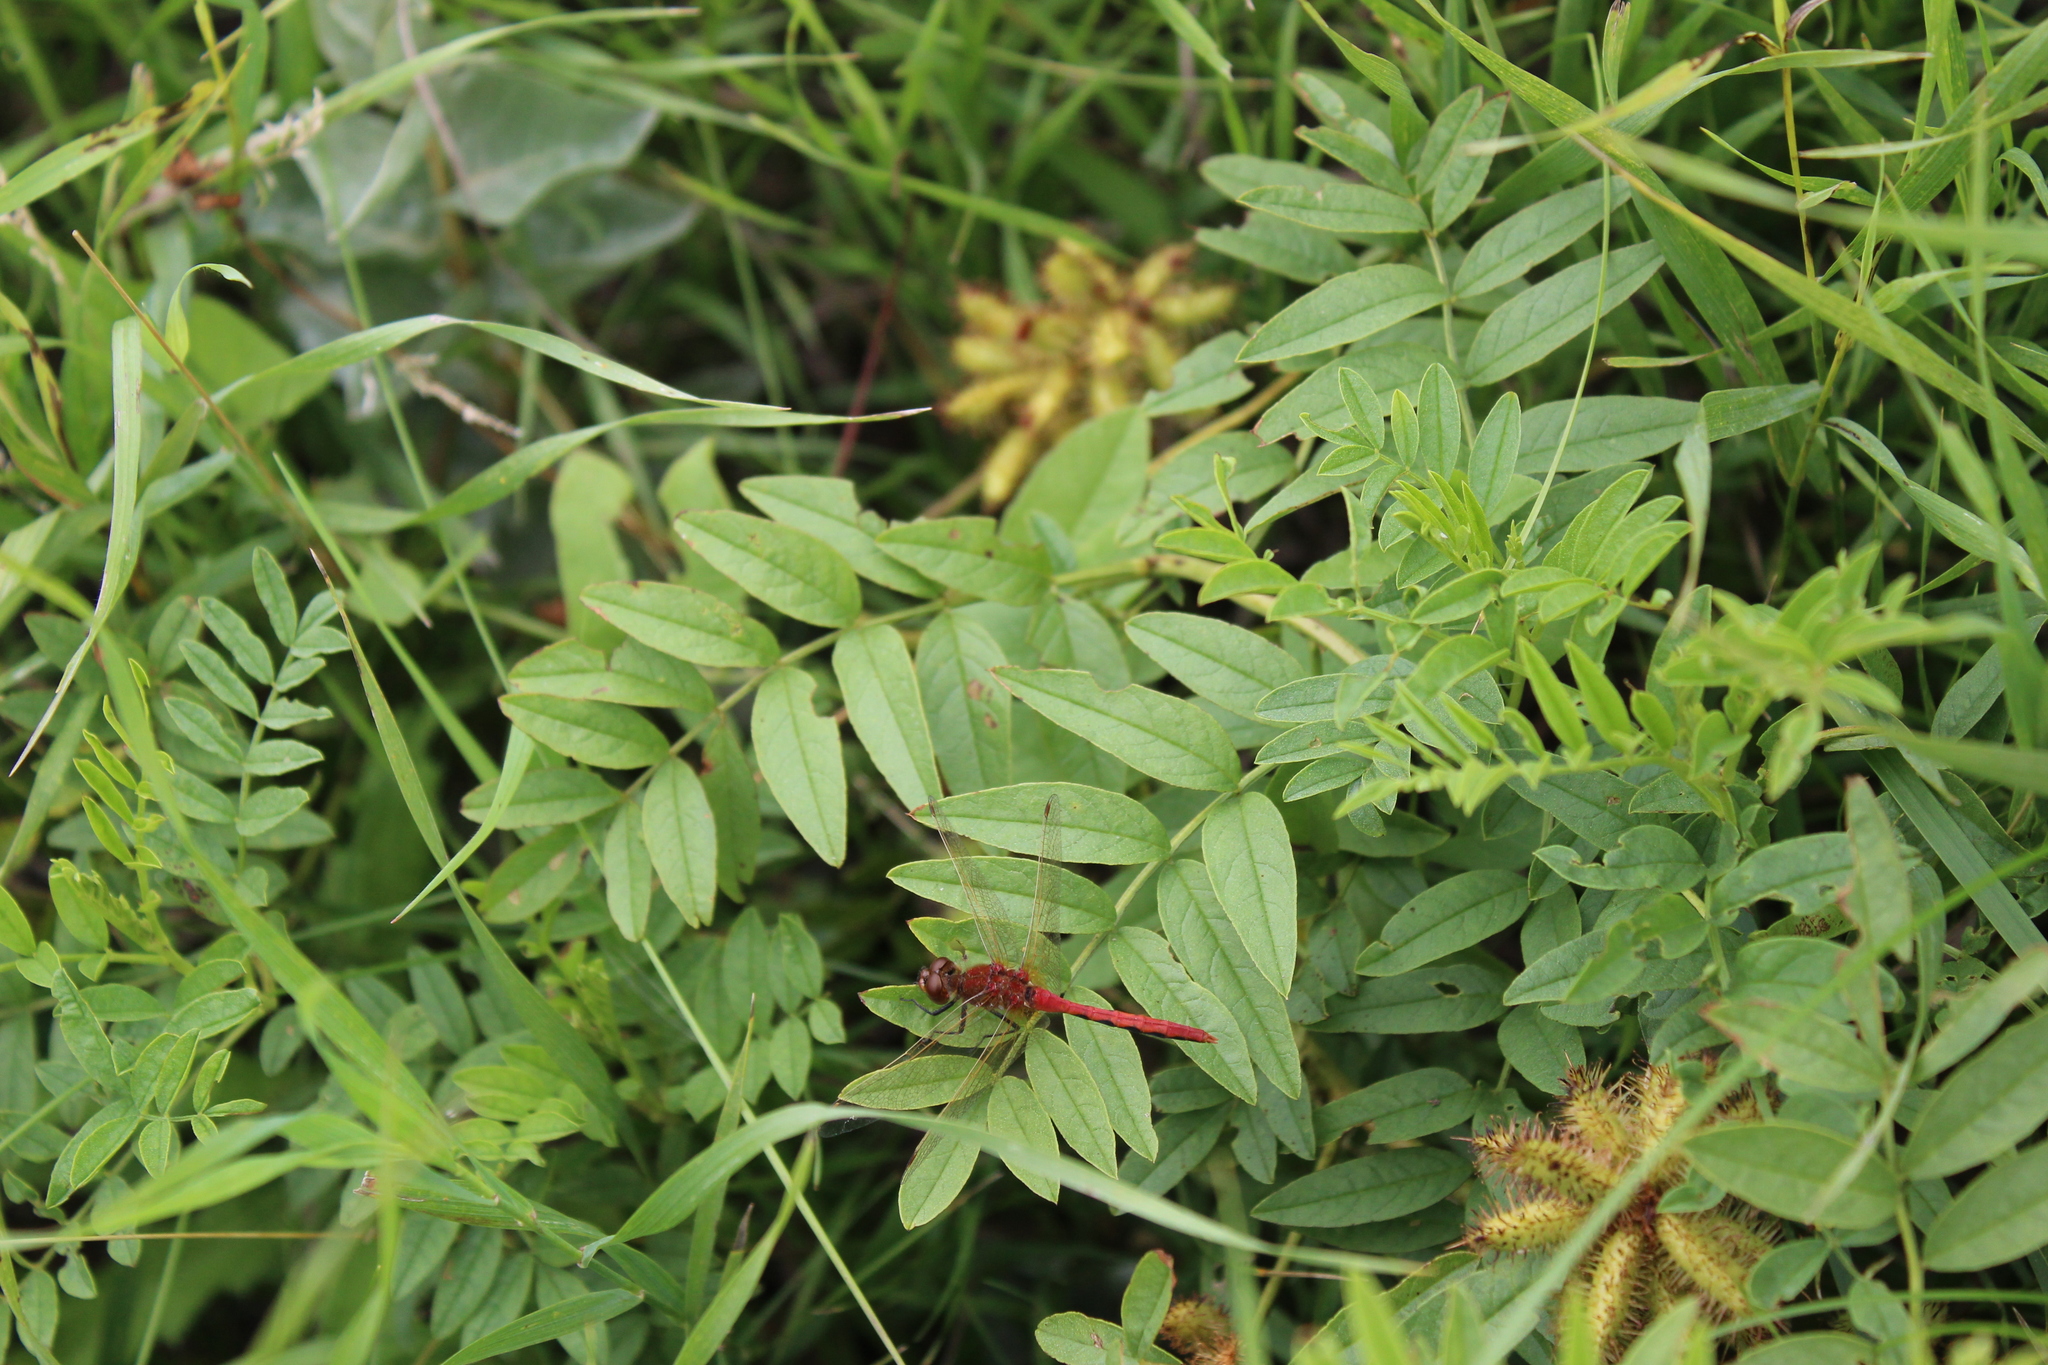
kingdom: Animalia
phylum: Arthropoda
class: Insecta
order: Odonata
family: Libellulidae
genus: Sympetrum
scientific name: Sympetrum internum
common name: Cherry-faced meadowhawk
